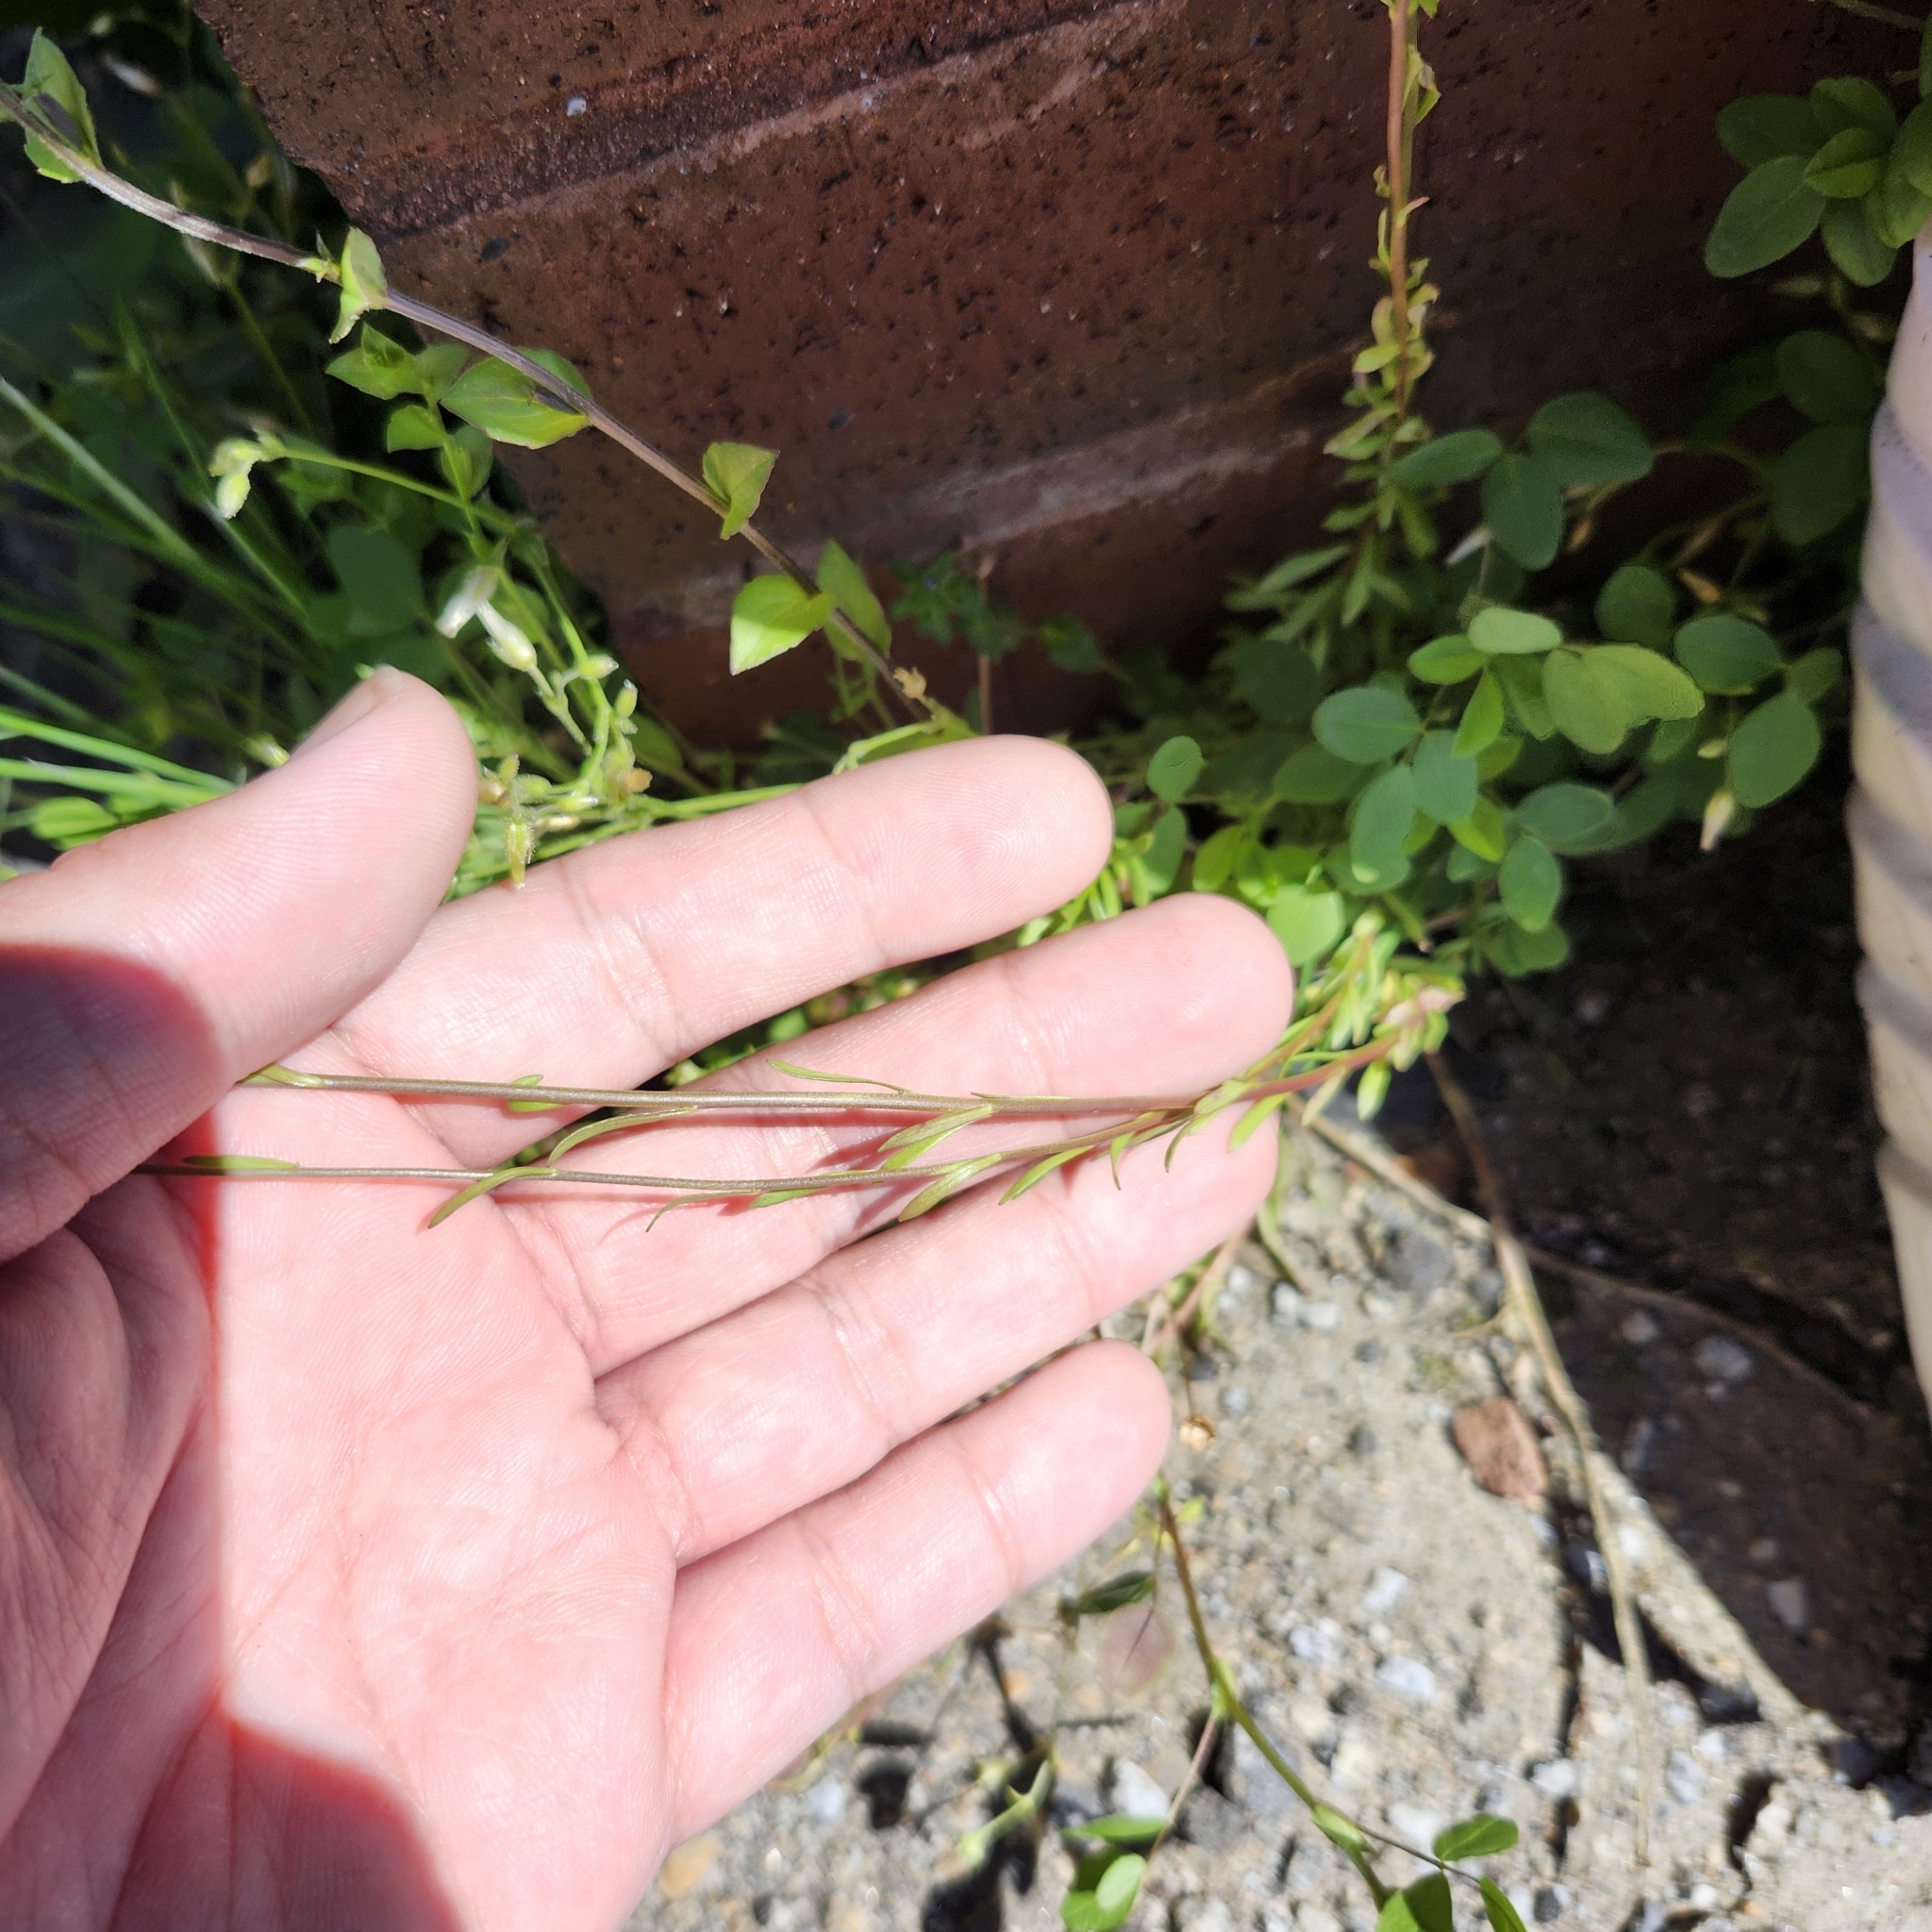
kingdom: Plantae
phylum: Tracheophyta
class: Magnoliopsida
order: Lamiales
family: Plantaginaceae
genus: Nuttallanthus
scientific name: Nuttallanthus canadensis
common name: Blue toadflax
